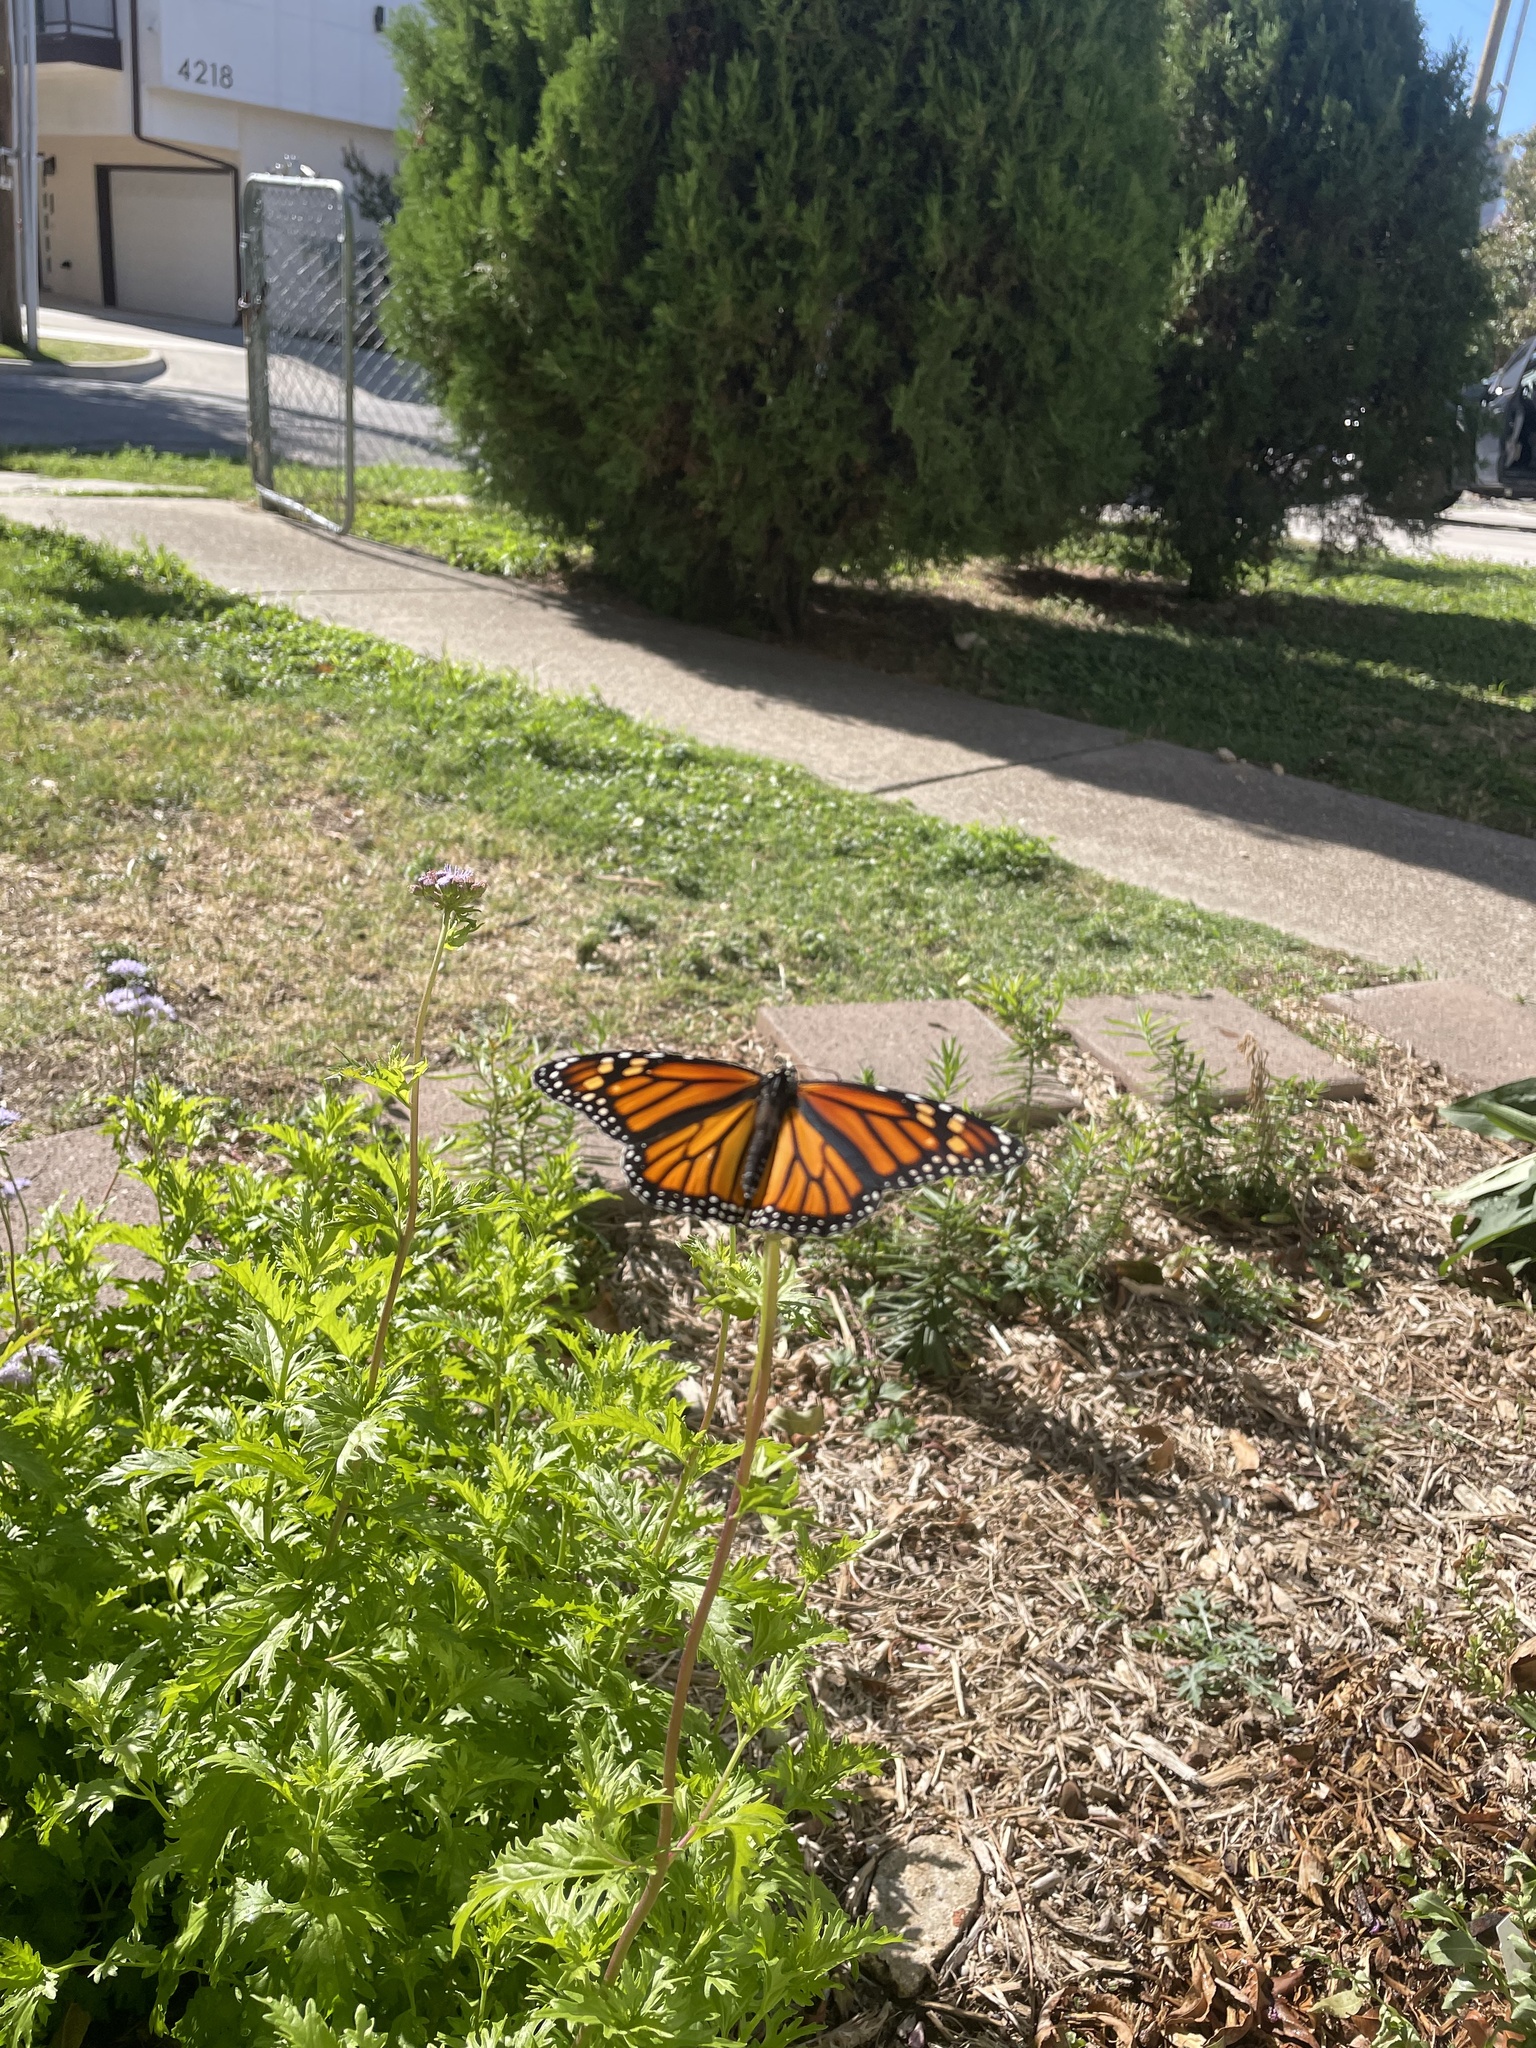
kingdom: Animalia
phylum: Arthropoda
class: Insecta
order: Lepidoptera
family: Nymphalidae
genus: Danaus
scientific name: Danaus plexippus
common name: Monarch
